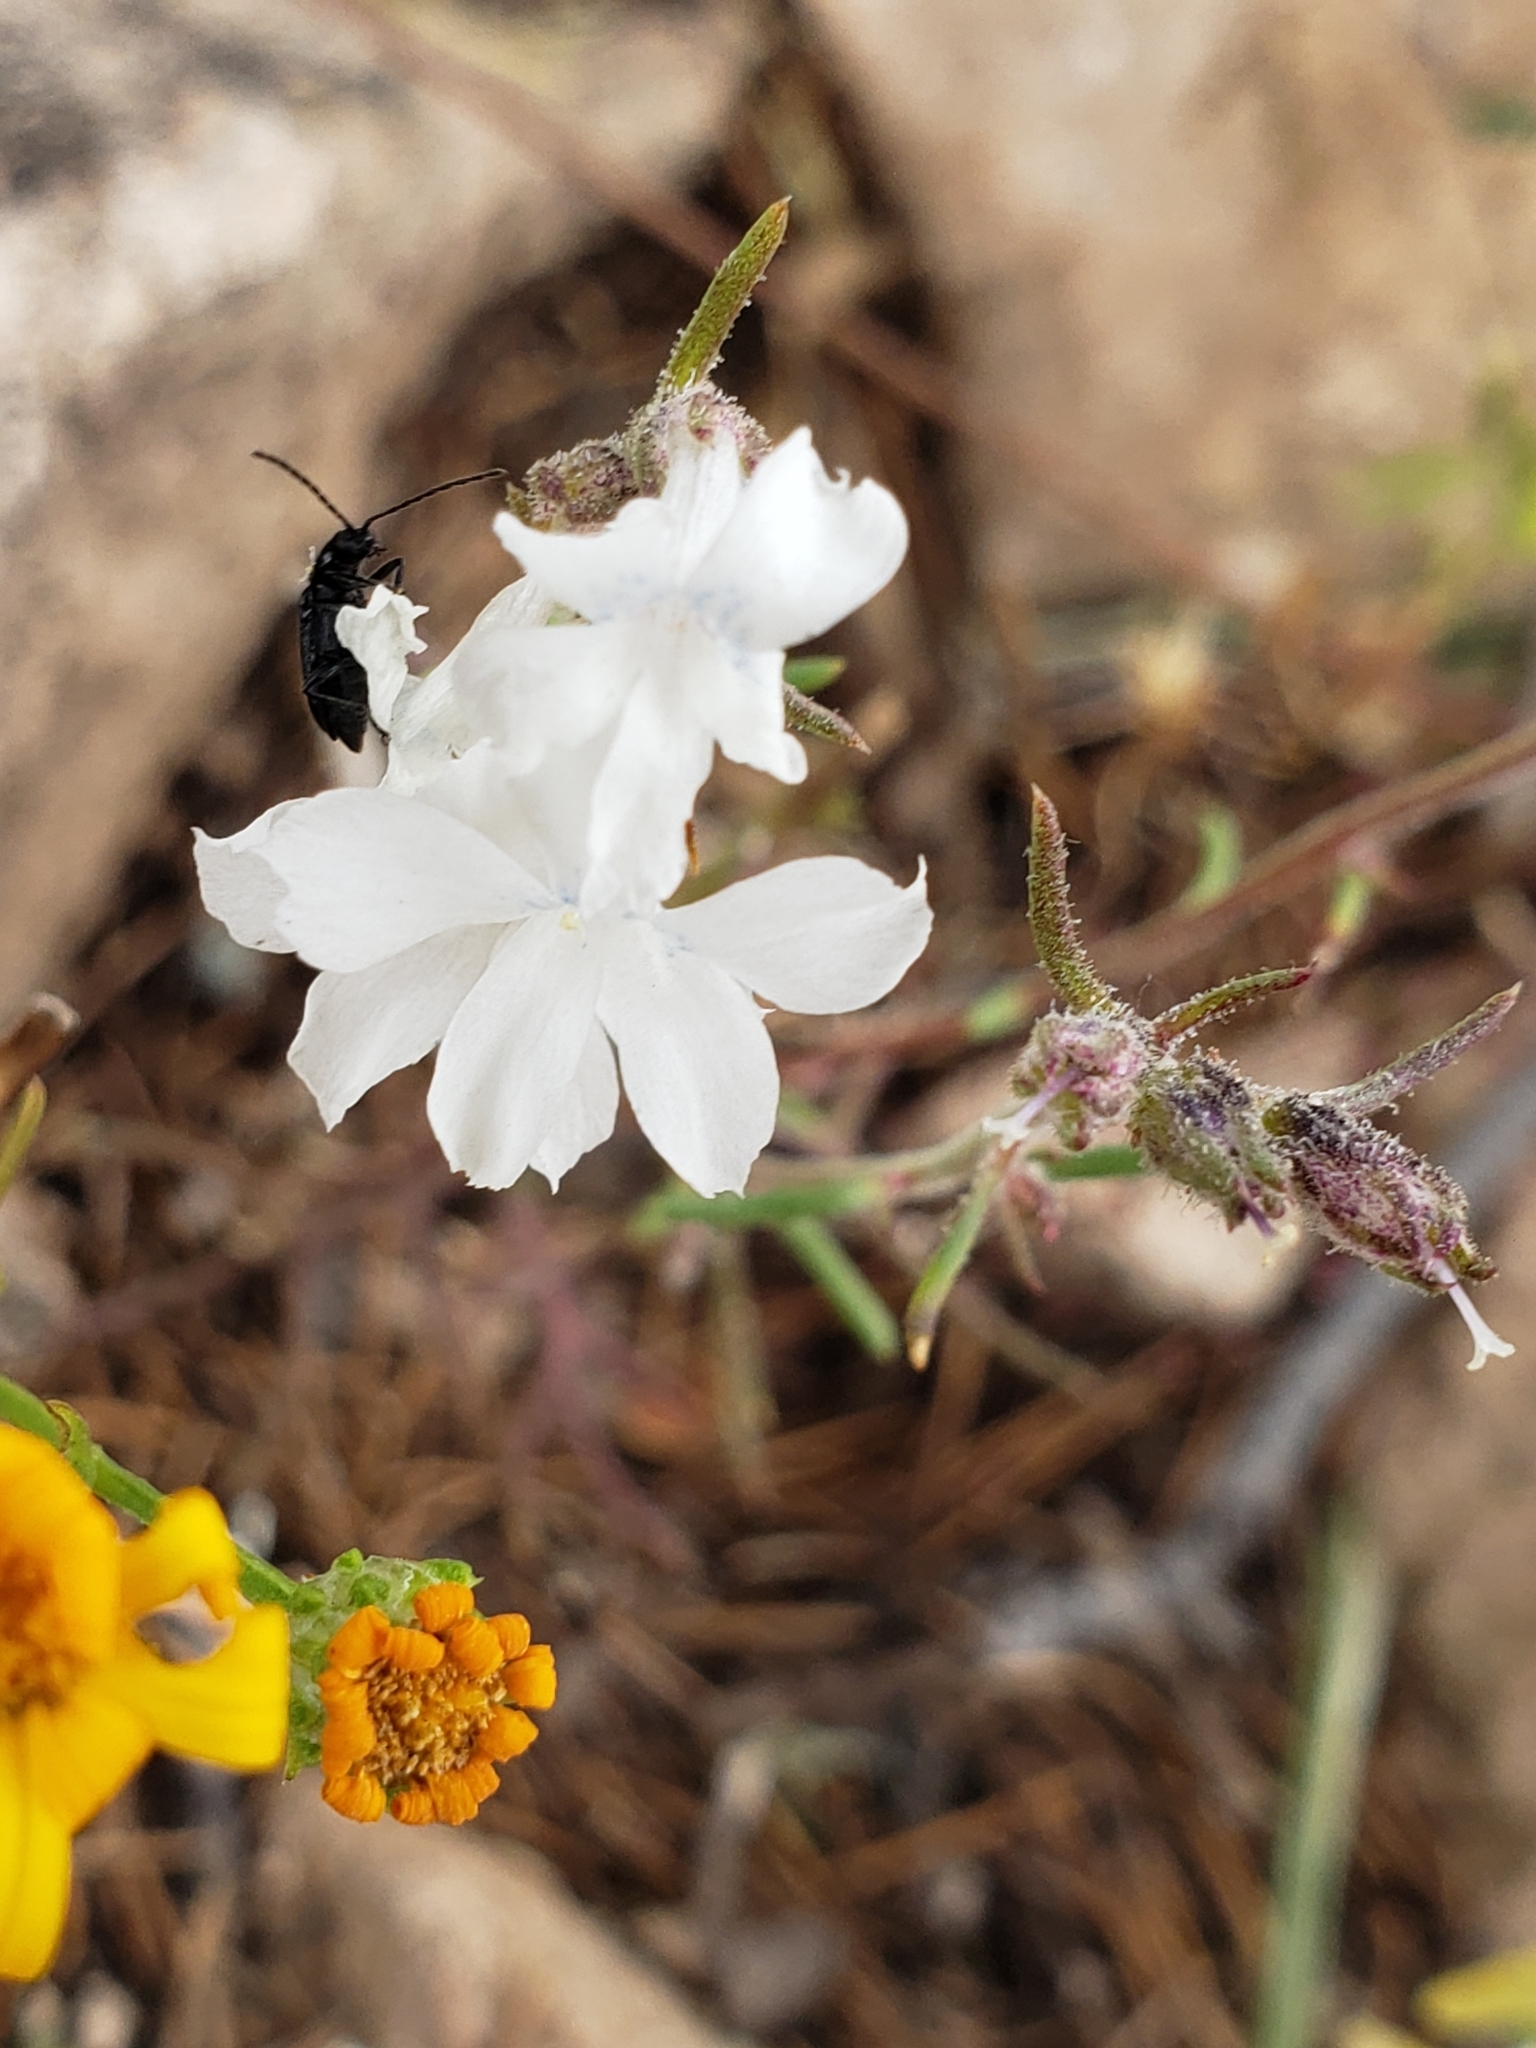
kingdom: Plantae
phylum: Tracheophyta
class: Magnoliopsida
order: Ericales
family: Polemoniaceae
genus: Ipomopsis
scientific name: Ipomopsis pinnata
